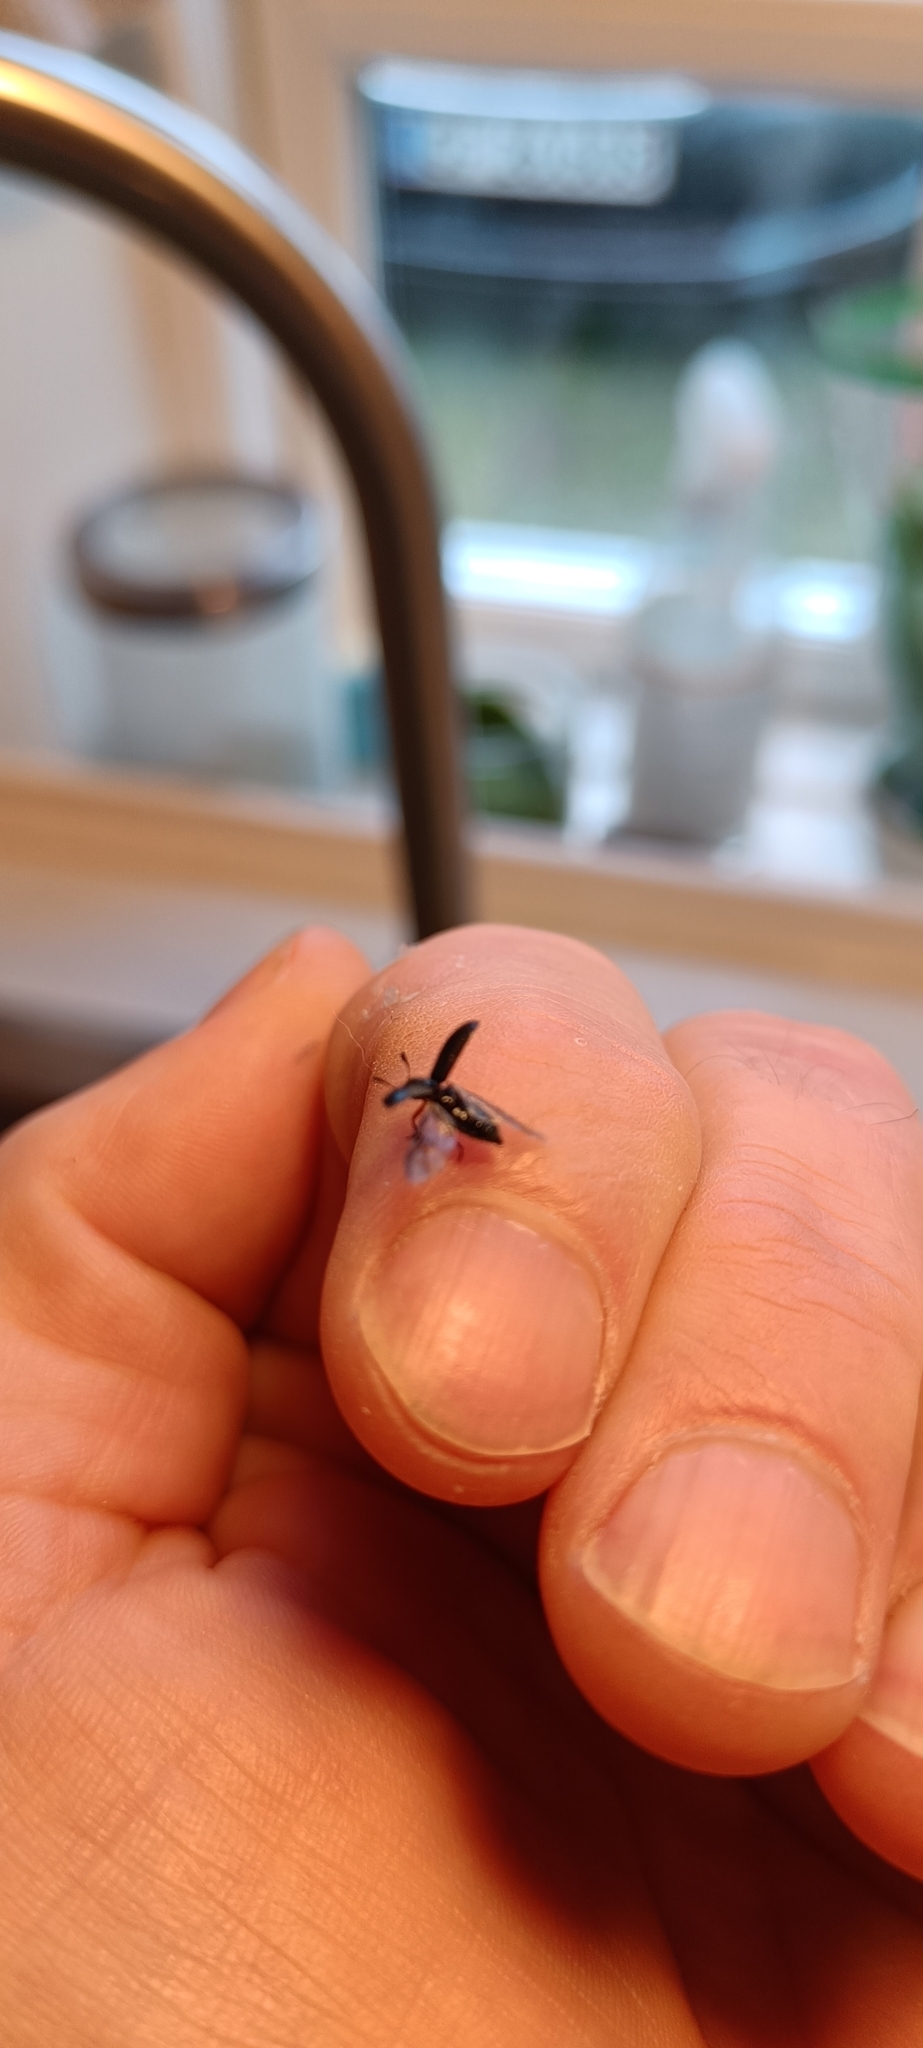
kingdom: Animalia
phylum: Arthropoda
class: Insecta
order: Coleoptera
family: Cleridae
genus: Necrobia
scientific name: Necrobia rufipes
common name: Red-legged ham beetle
